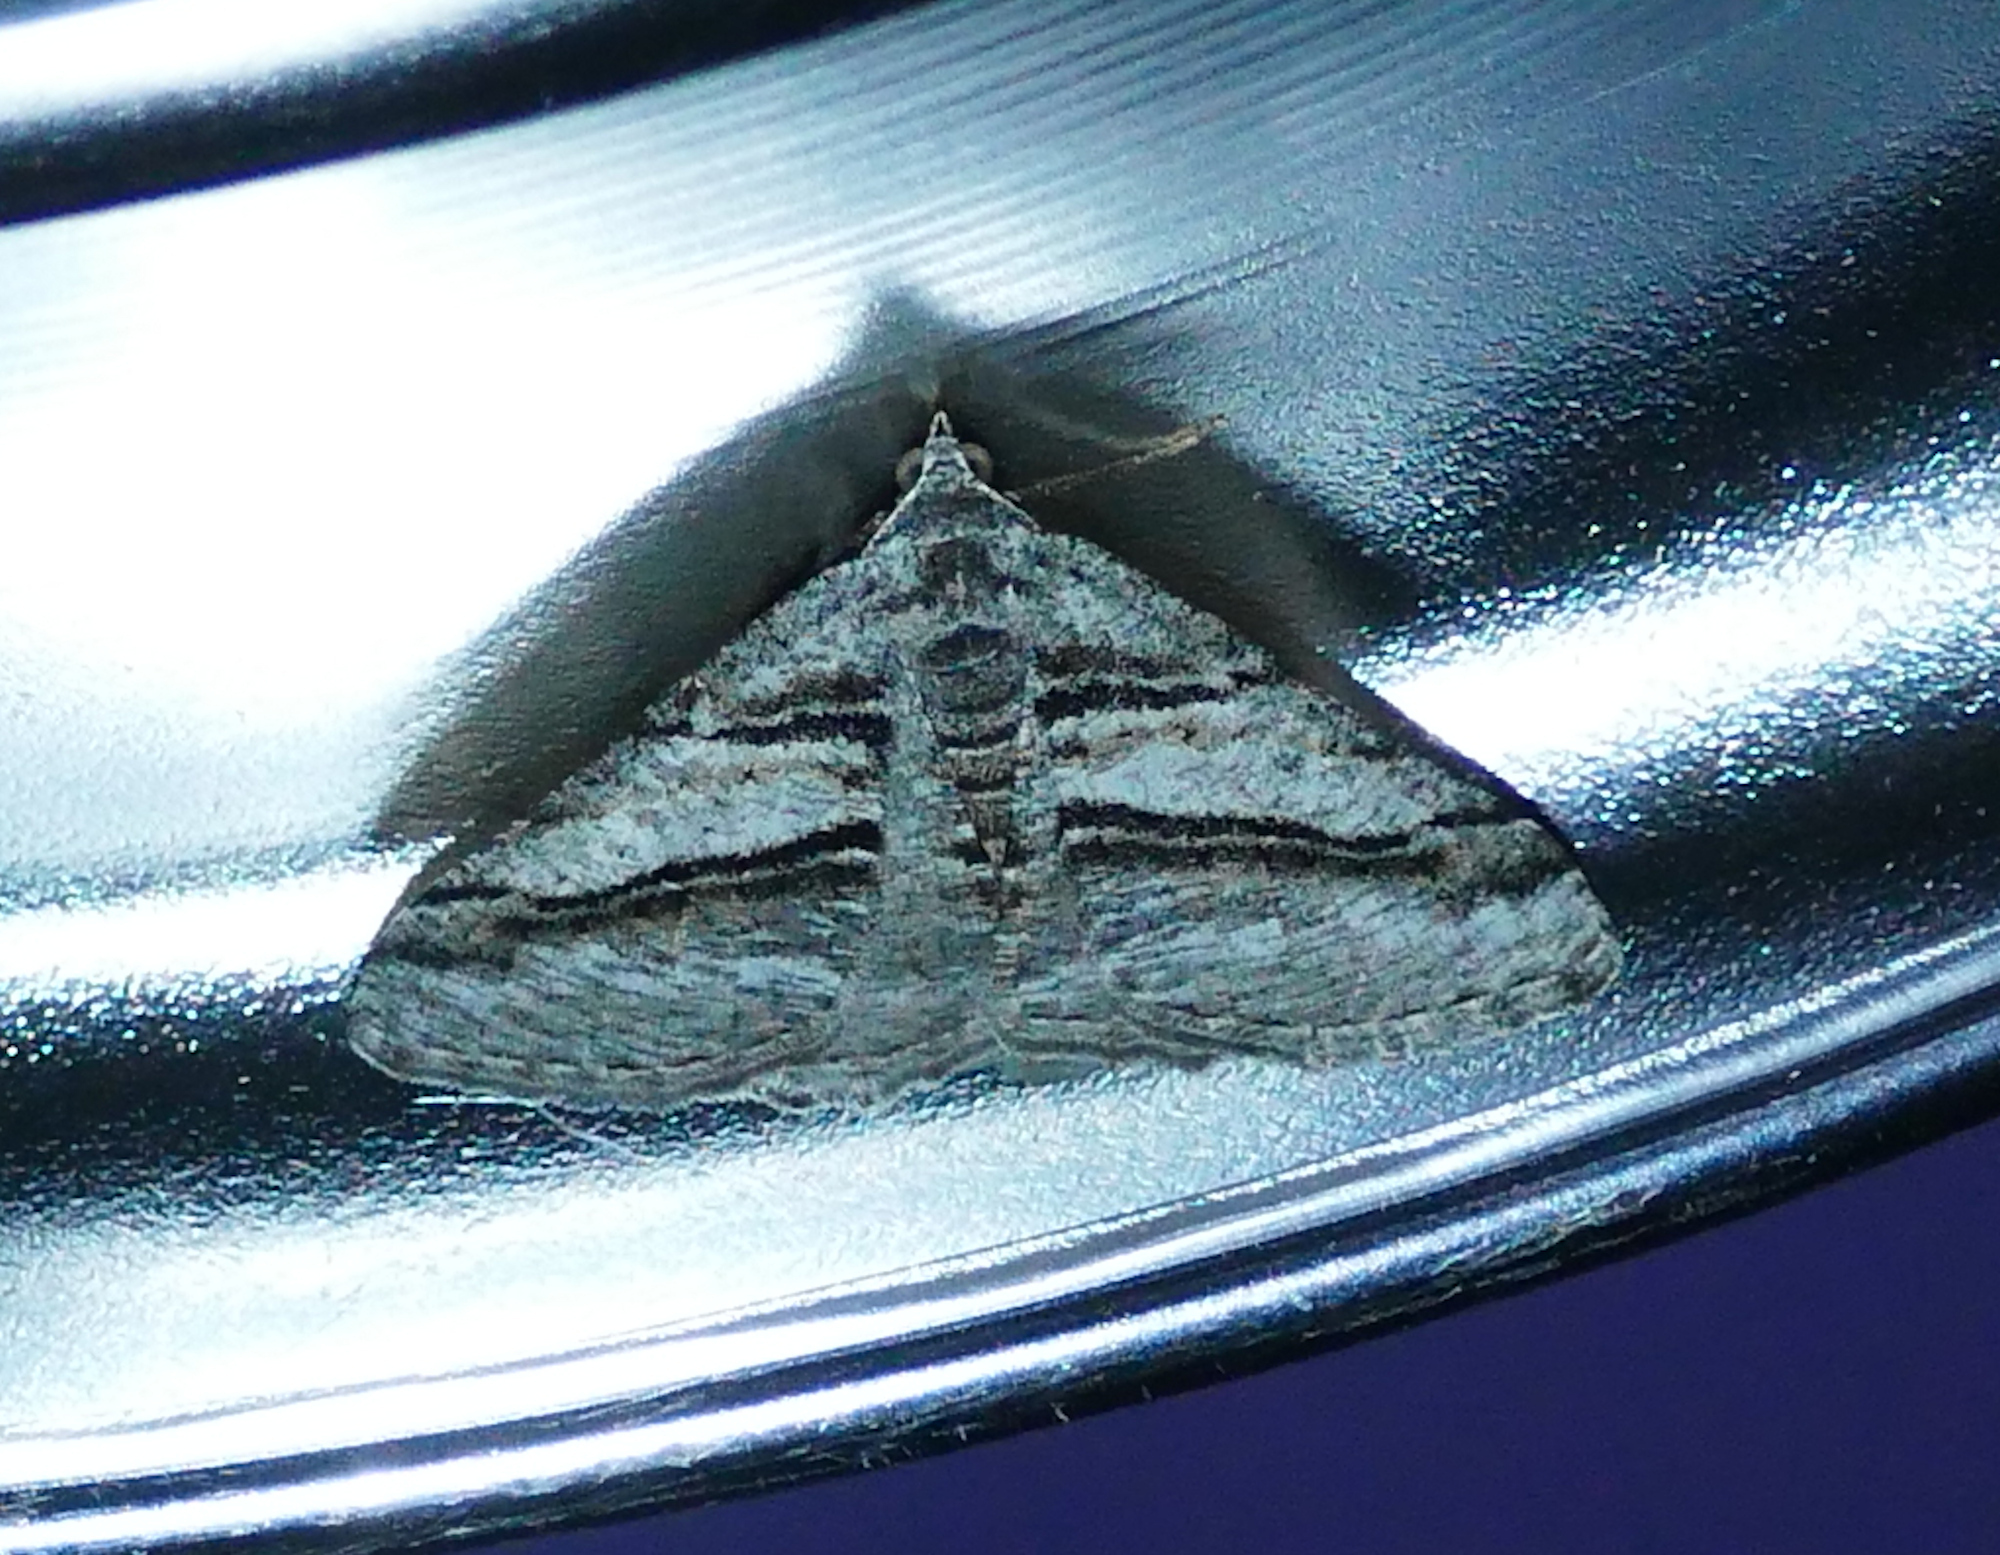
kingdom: Animalia
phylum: Arthropoda
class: Insecta
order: Lepidoptera
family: Geometridae
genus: Digrammia
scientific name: Digrammia atrofasciata
